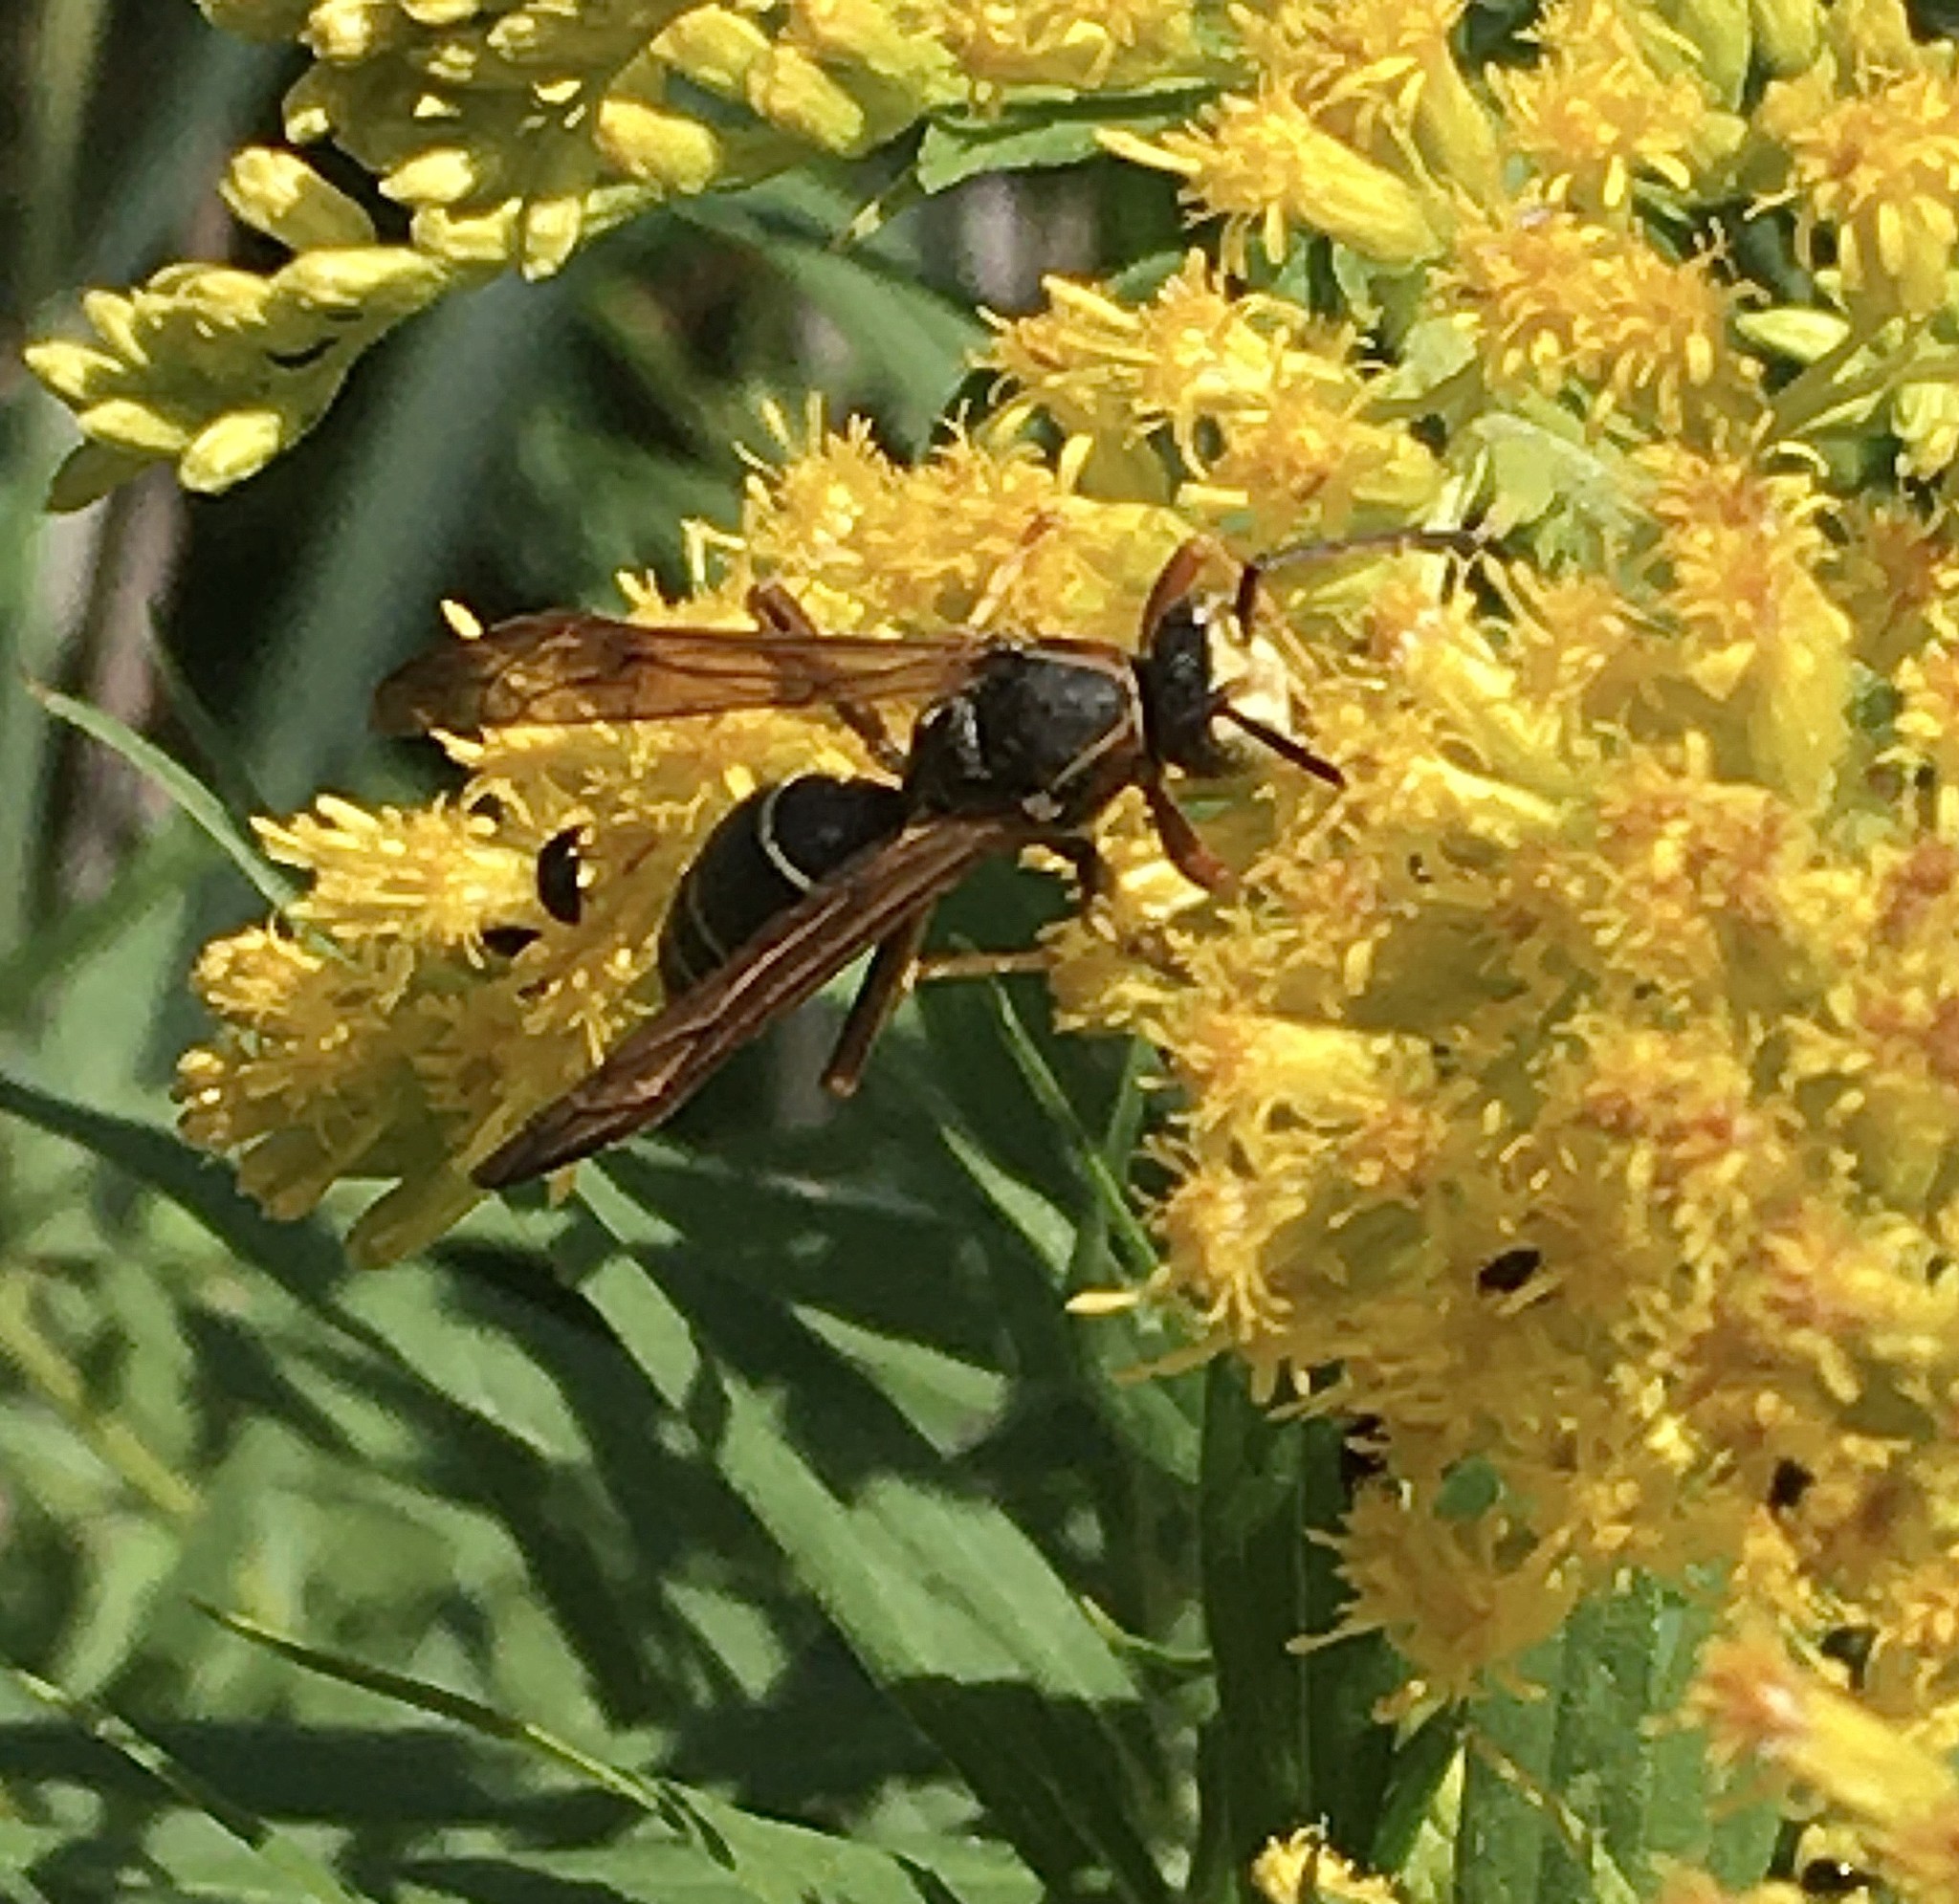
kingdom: Animalia
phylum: Arthropoda
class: Insecta
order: Hymenoptera
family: Eumenidae
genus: Polistes
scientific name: Polistes fuscatus
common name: Dark paper wasp
